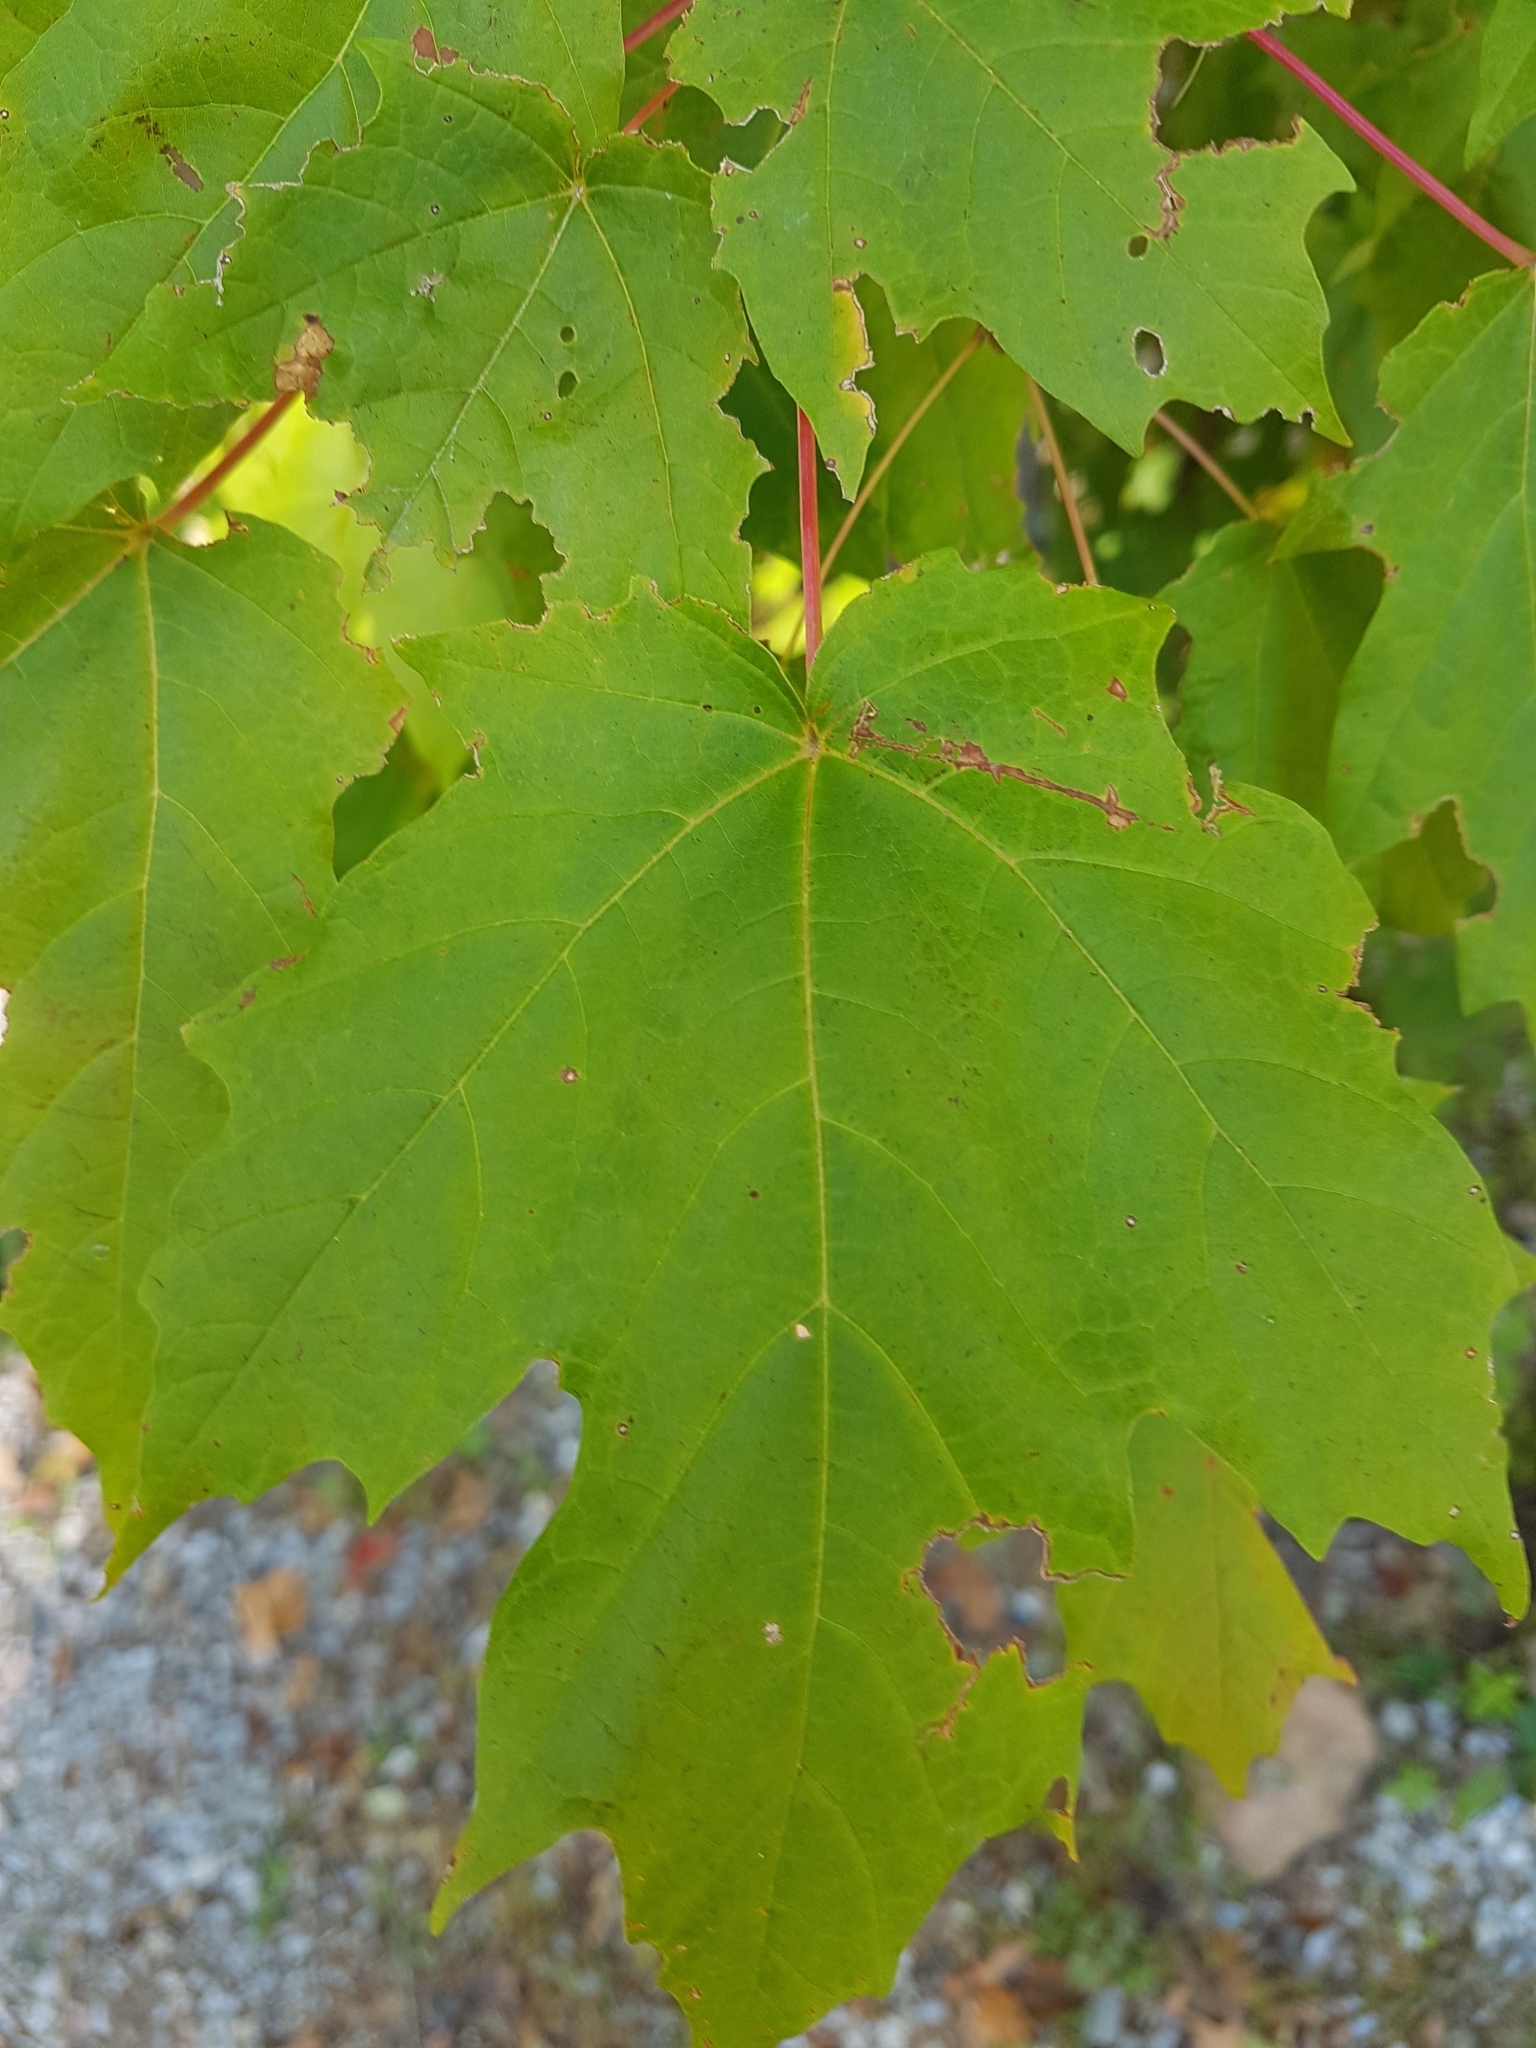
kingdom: Plantae
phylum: Tracheophyta
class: Magnoliopsida
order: Sapindales
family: Sapindaceae
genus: Acer
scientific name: Acer saccharum
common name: Sugar maple
